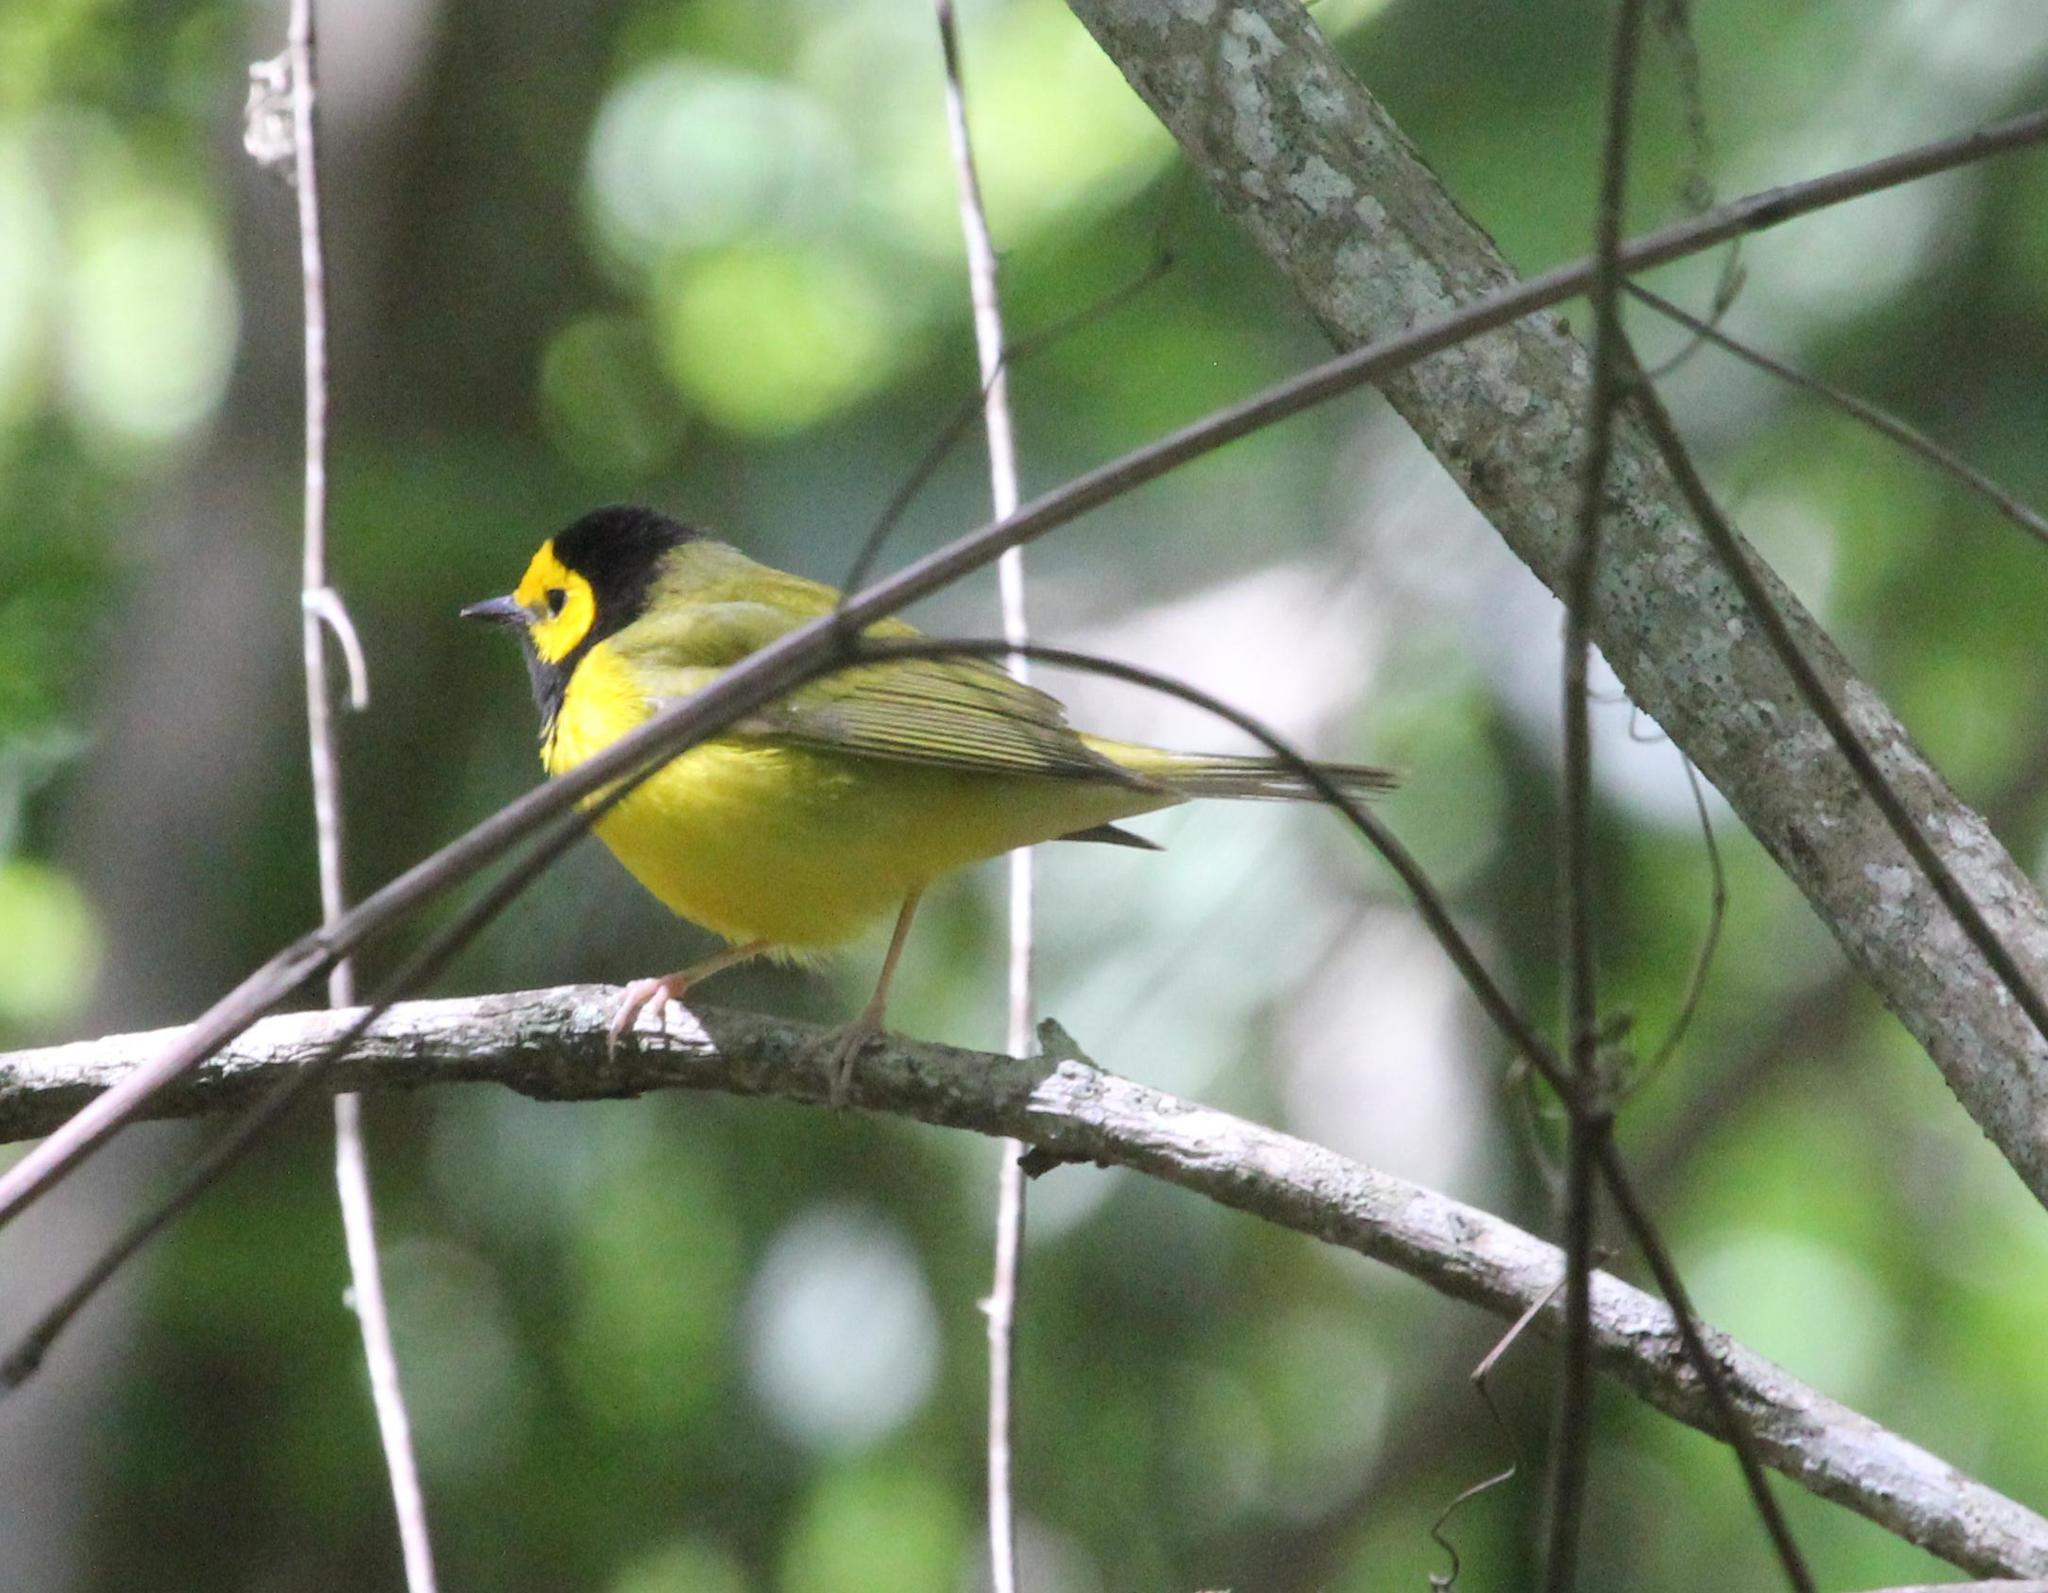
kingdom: Animalia
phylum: Chordata
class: Aves
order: Passeriformes
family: Parulidae
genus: Setophaga
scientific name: Setophaga citrina
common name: Hooded warbler
